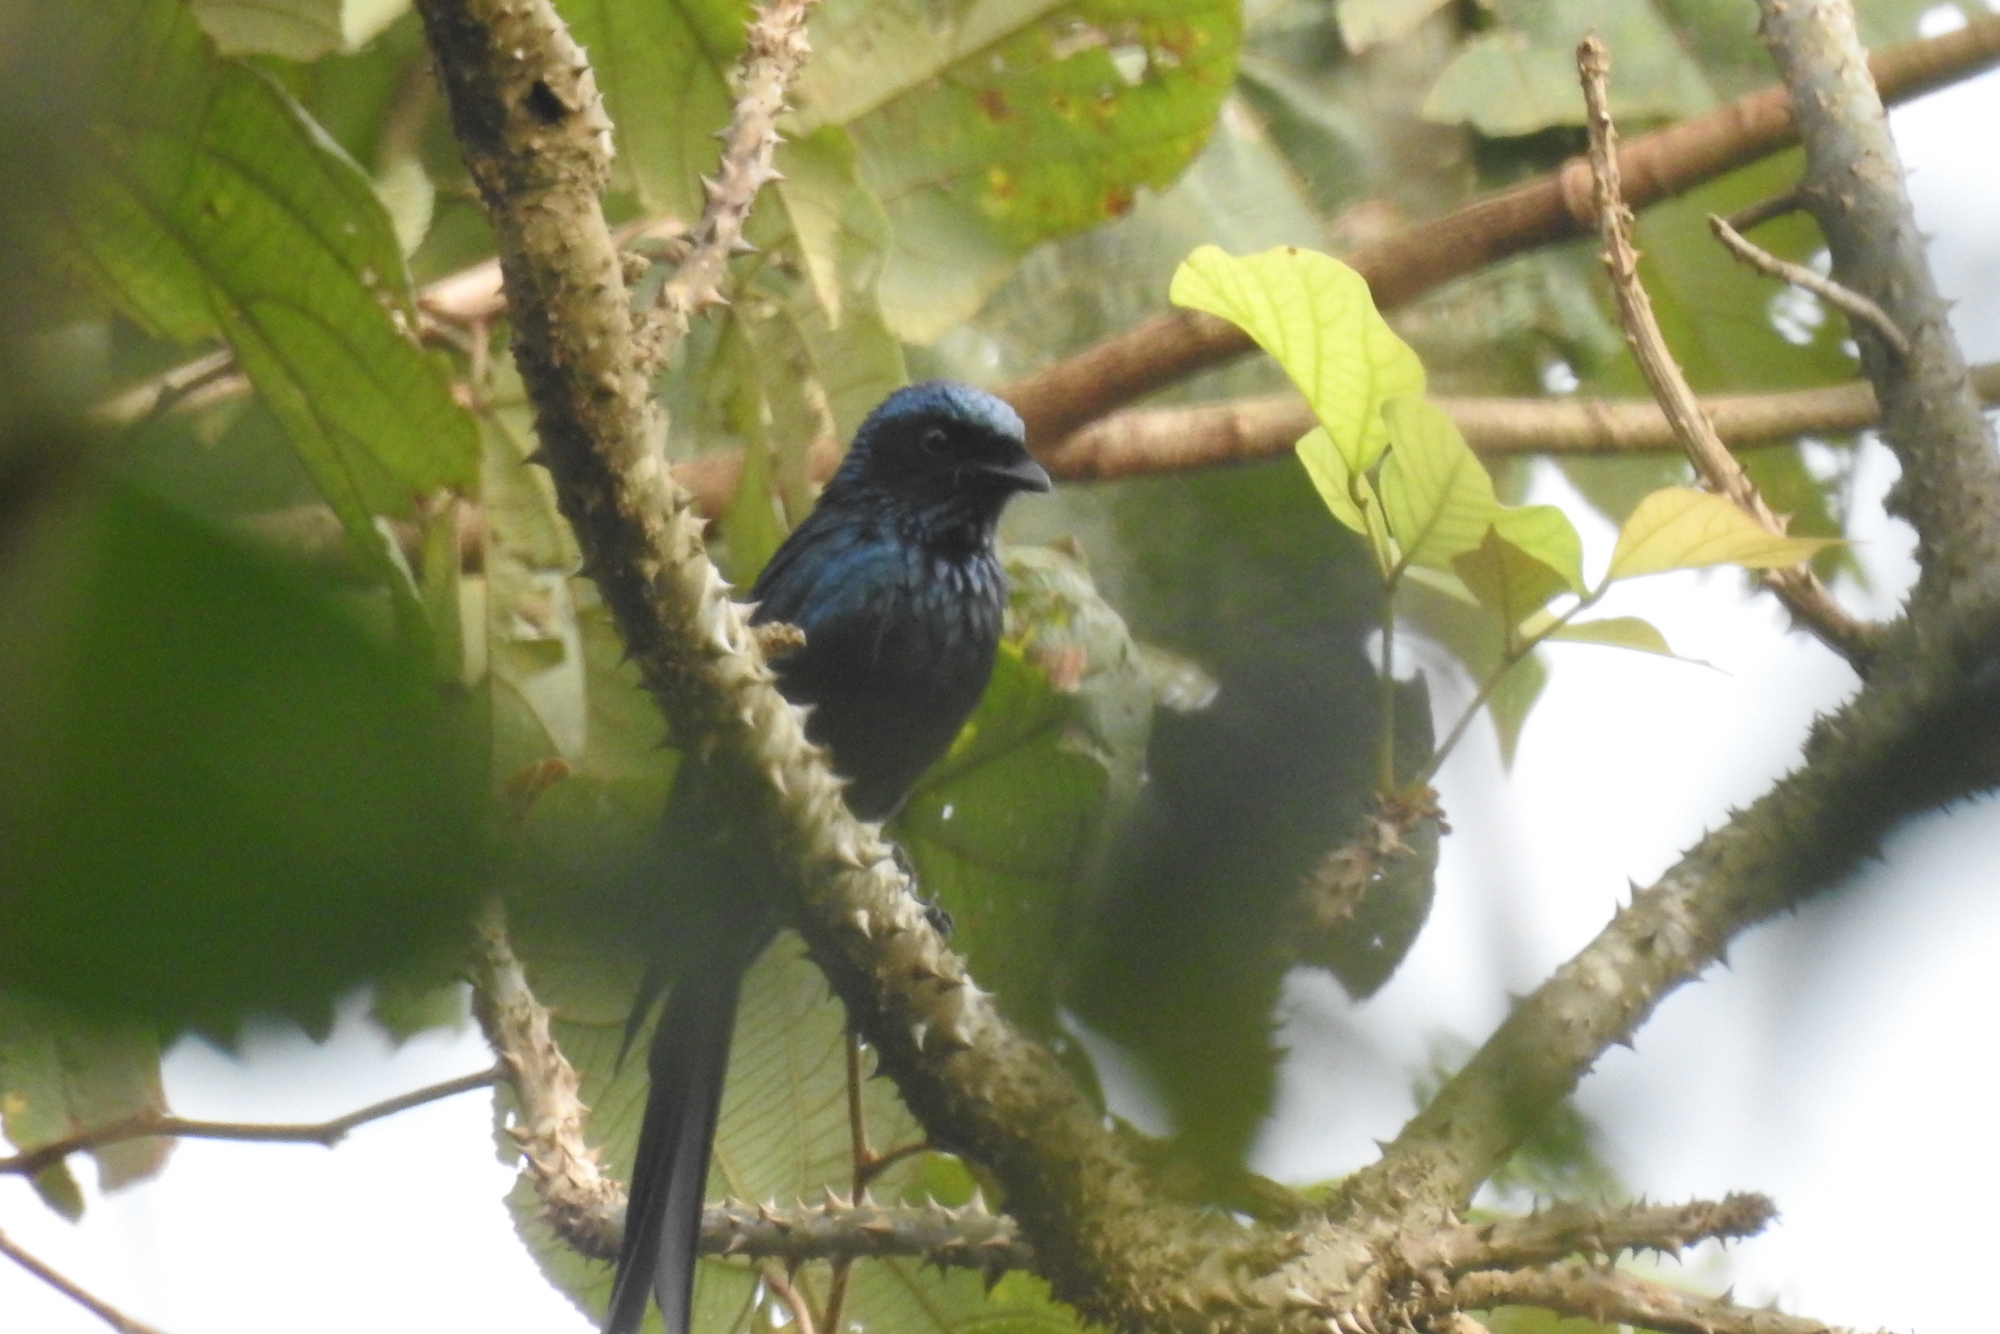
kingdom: Animalia
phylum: Chordata
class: Aves
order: Passeriformes
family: Dicruridae
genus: Dicrurus
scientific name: Dicrurus aeneus
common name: Bronzed drongo
